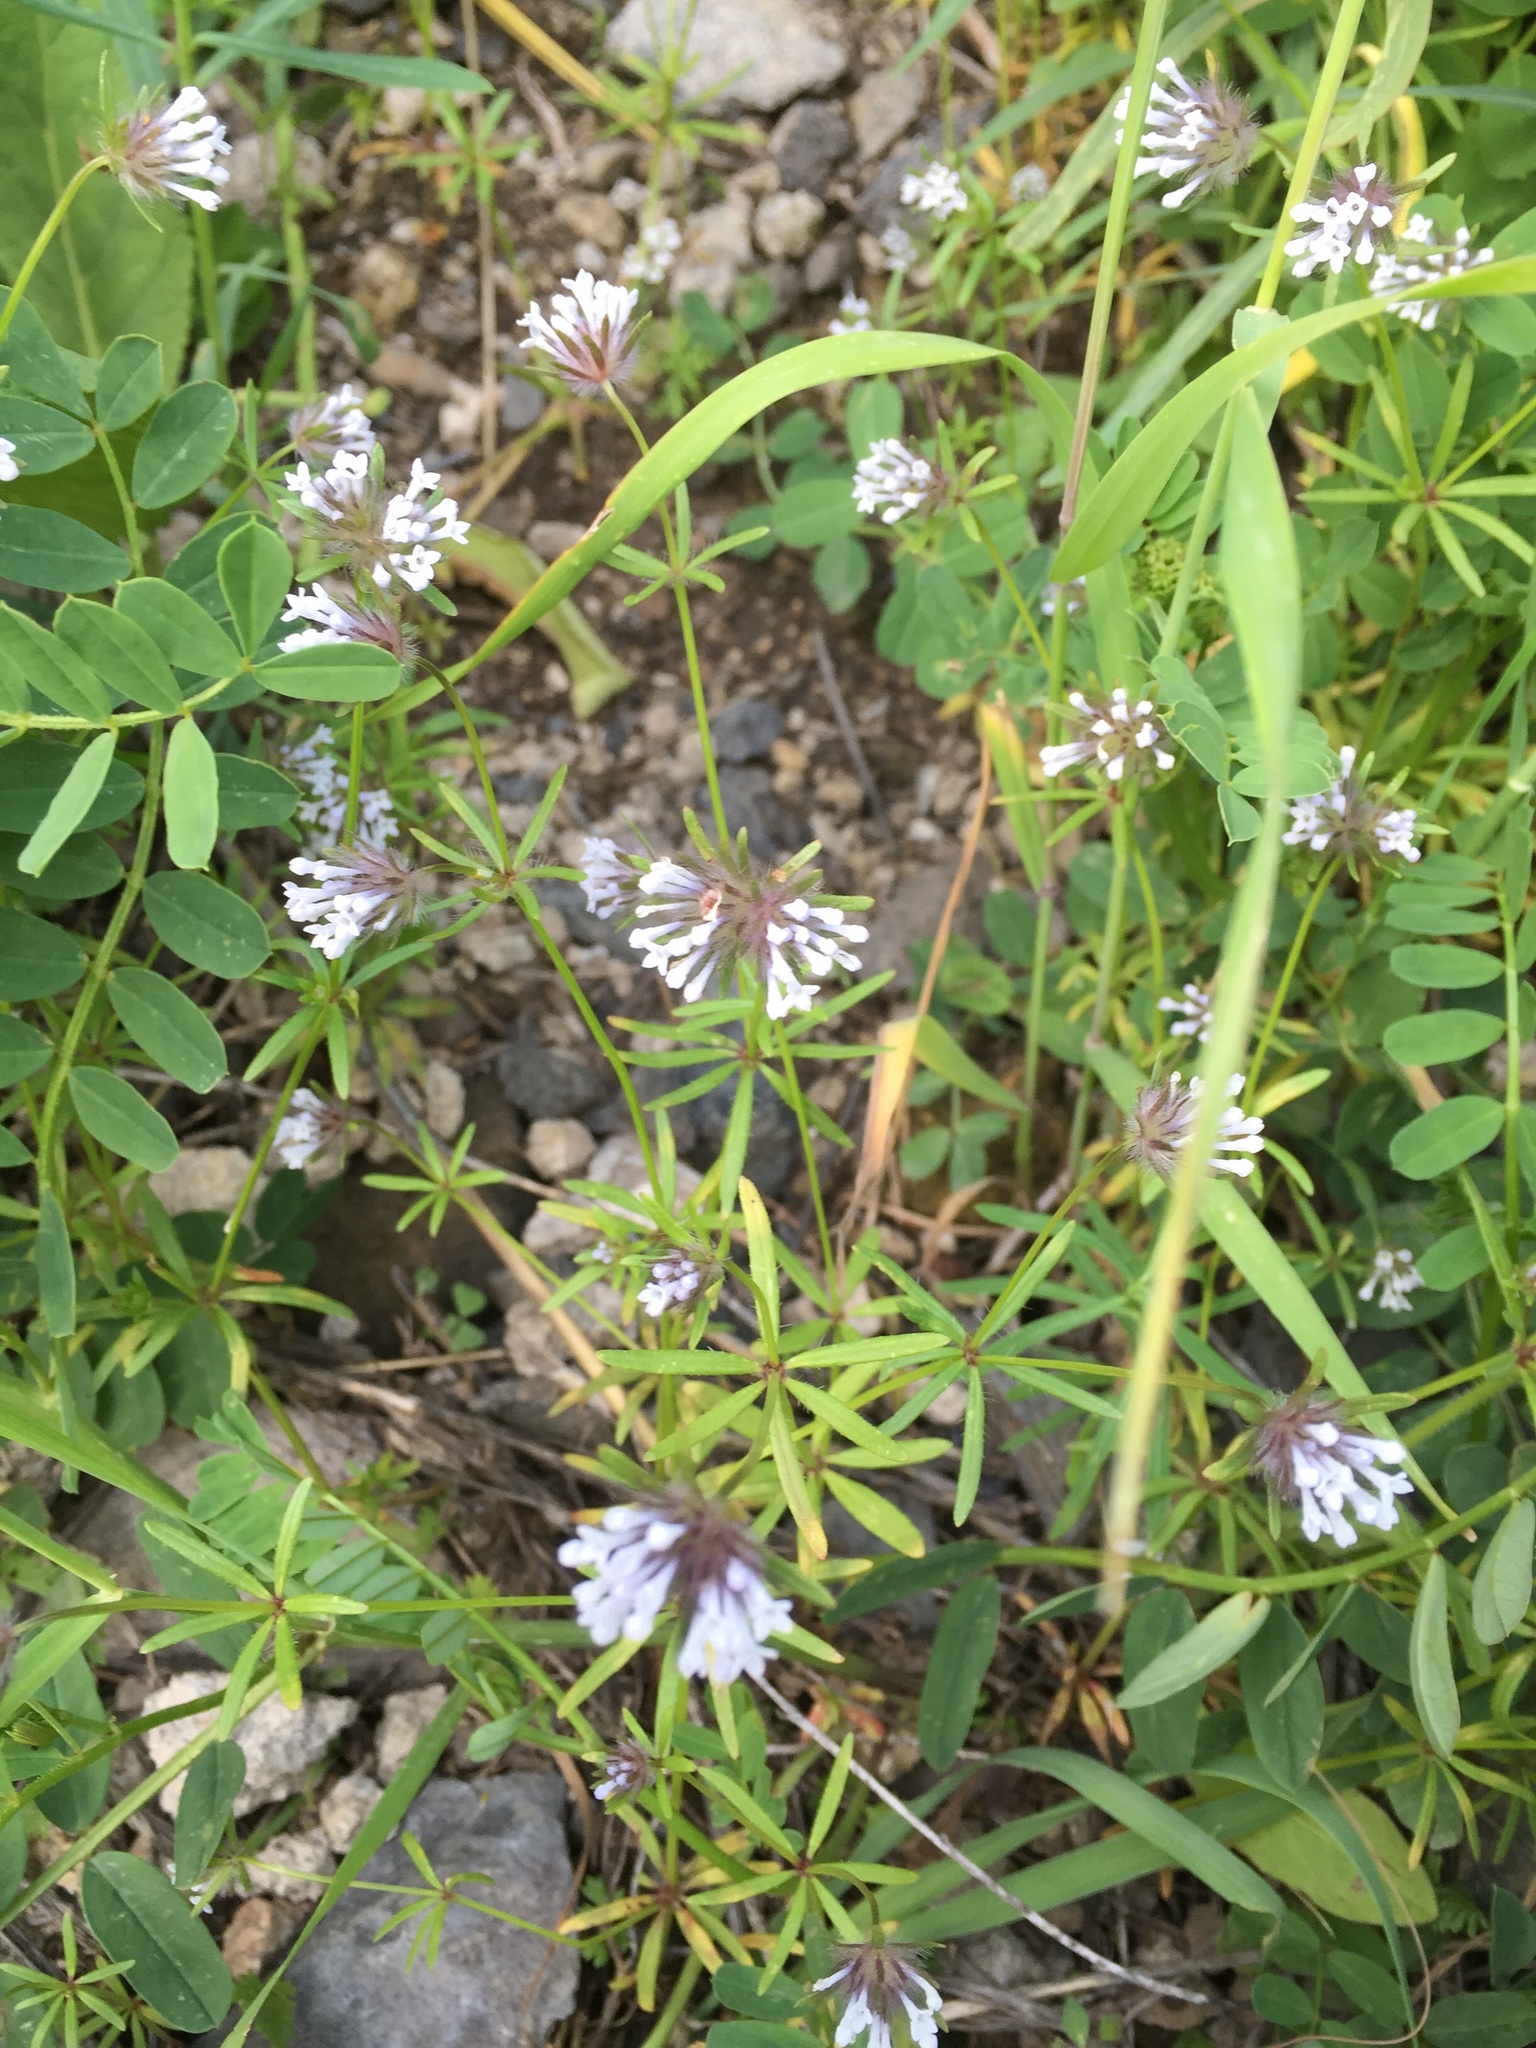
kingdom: Plantae
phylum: Tracheophyta
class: Magnoliopsida
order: Gentianales
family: Rubiaceae
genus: Asperula
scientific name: Asperula orientalis
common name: Oriental asperula
